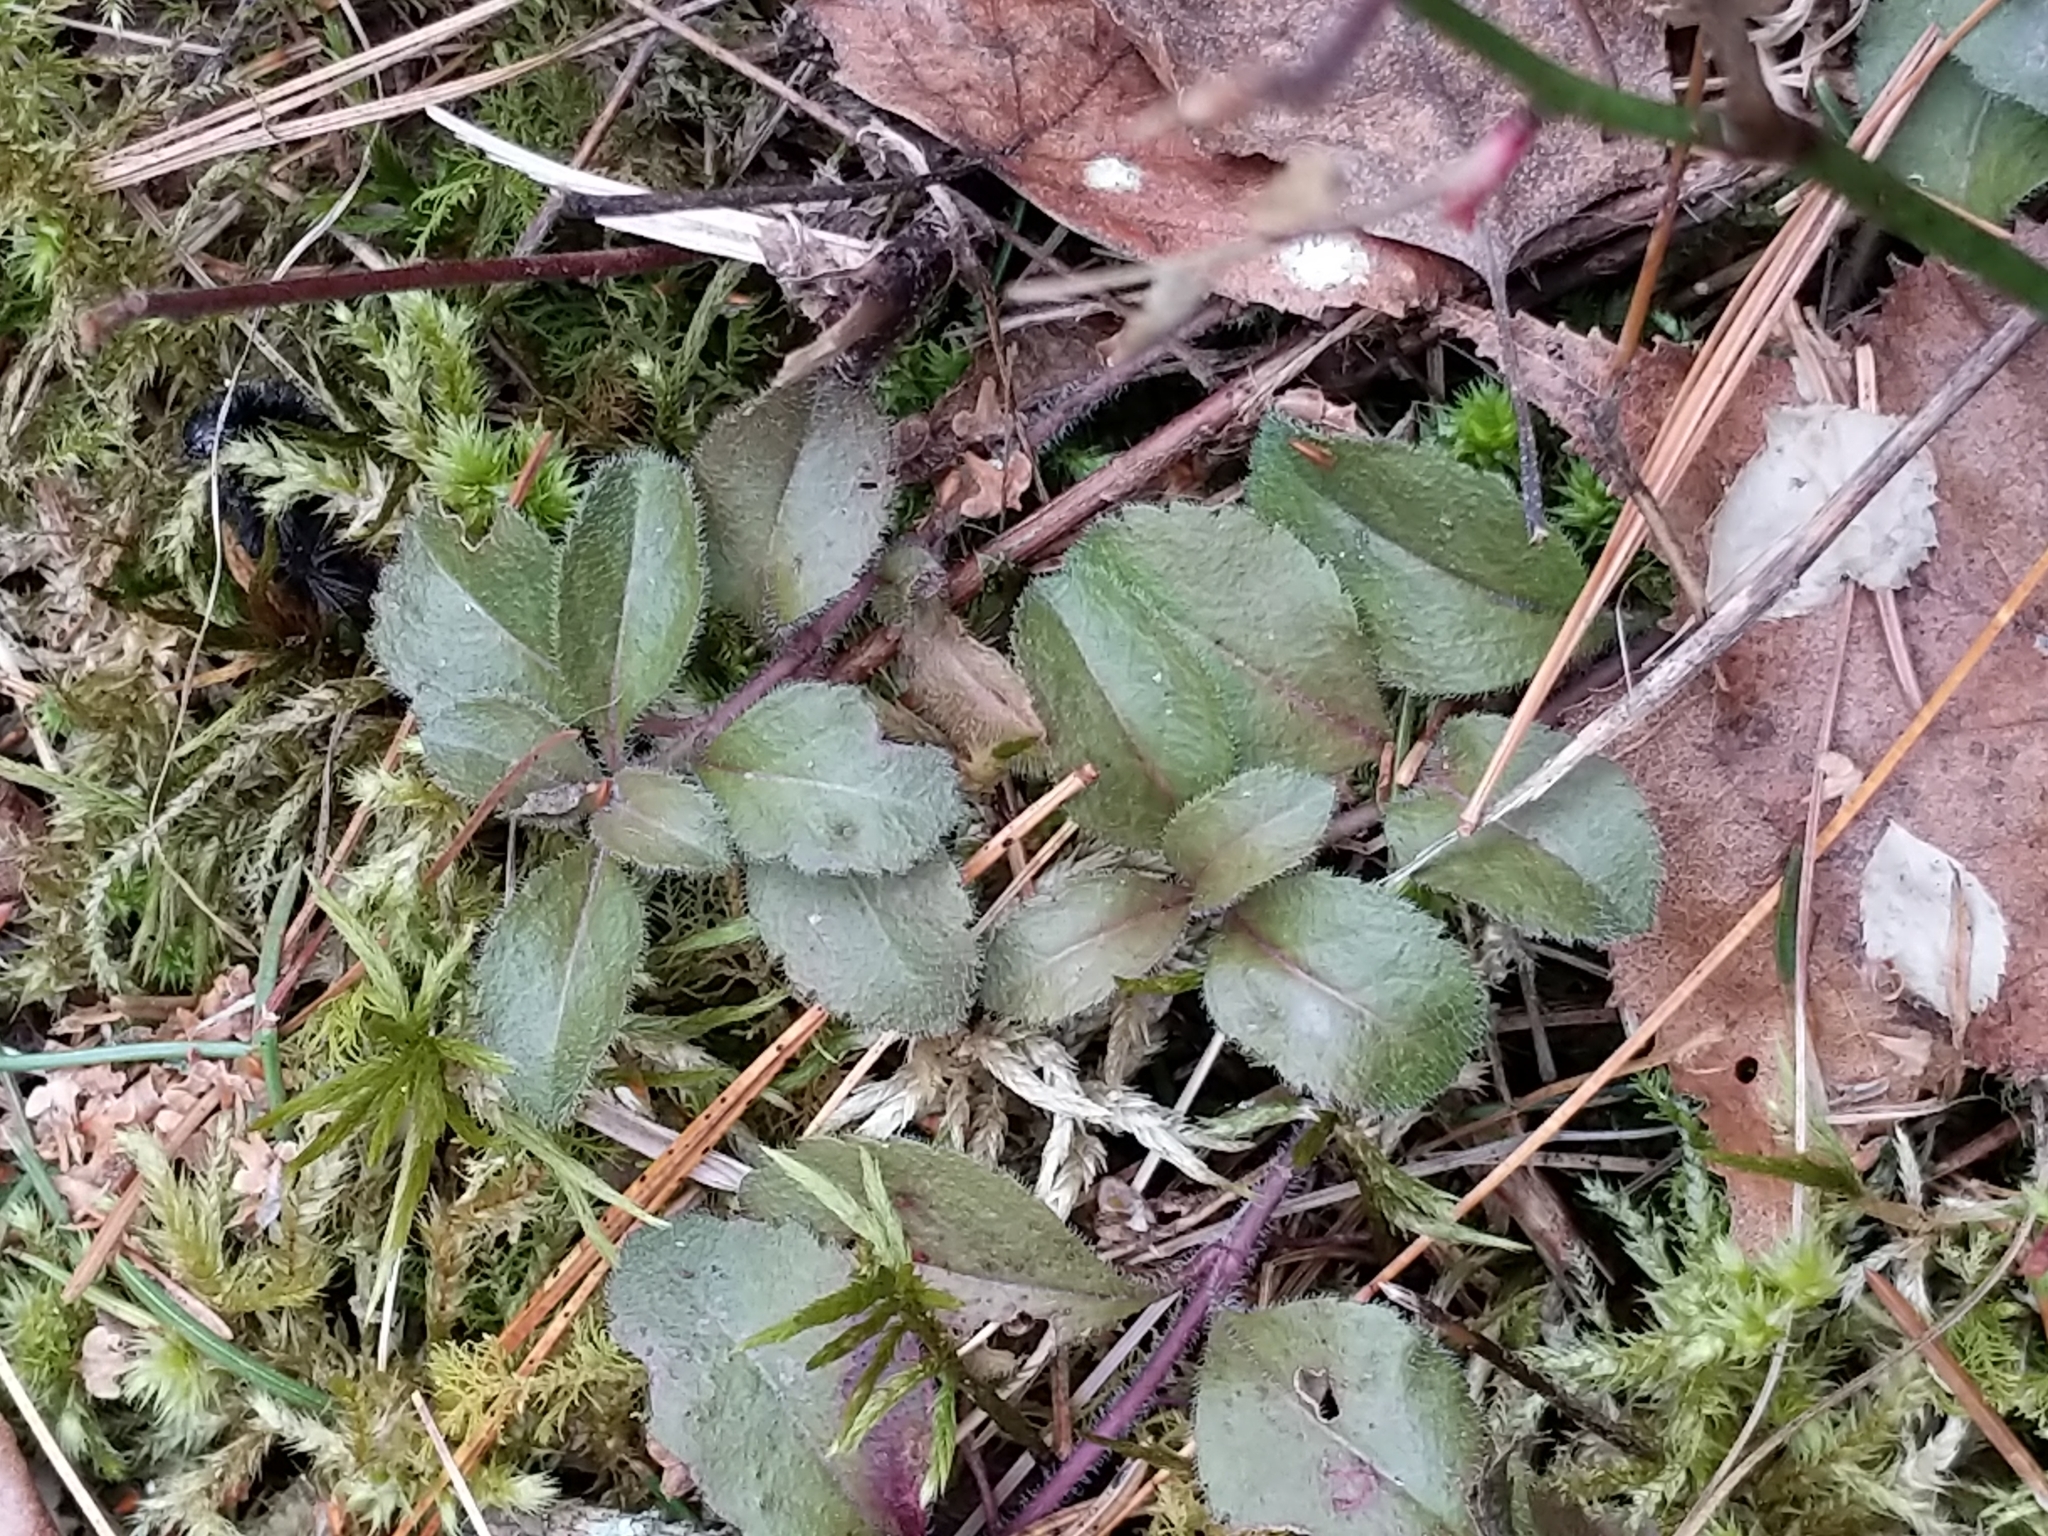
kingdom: Plantae
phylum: Tracheophyta
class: Magnoliopsida
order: Lamiales
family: Plantaginaceae
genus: Veronica
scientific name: Veronica officinalis
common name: Common speedwell
